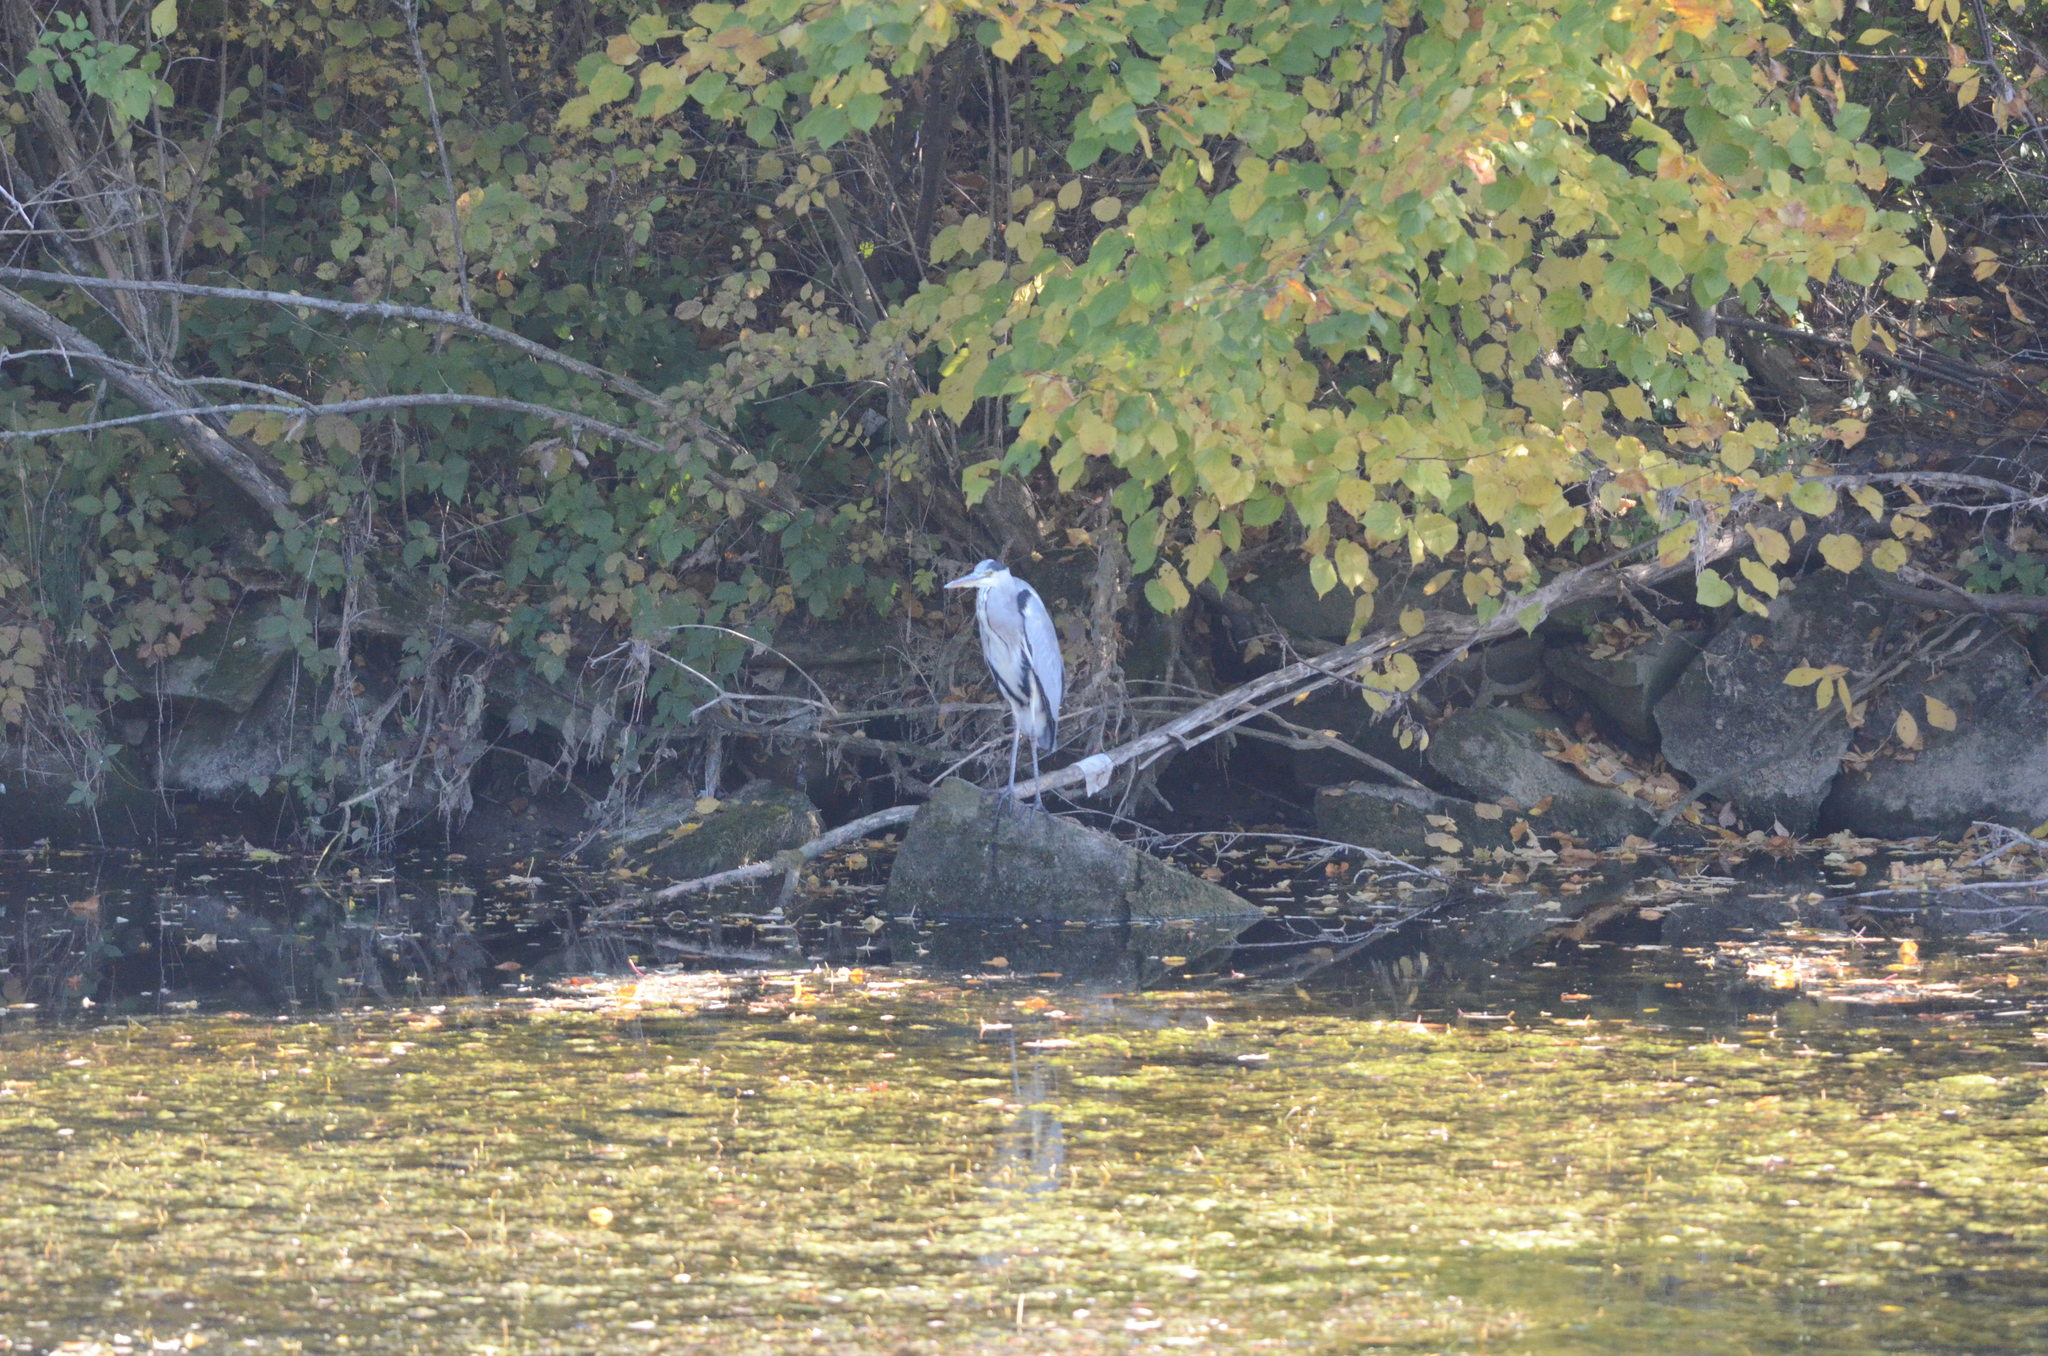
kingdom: Animalia
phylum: Chordata
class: Aves
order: Pelecaniformes
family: Ardeidae
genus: Ardea
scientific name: Ardea cinerea
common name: Grey heron
